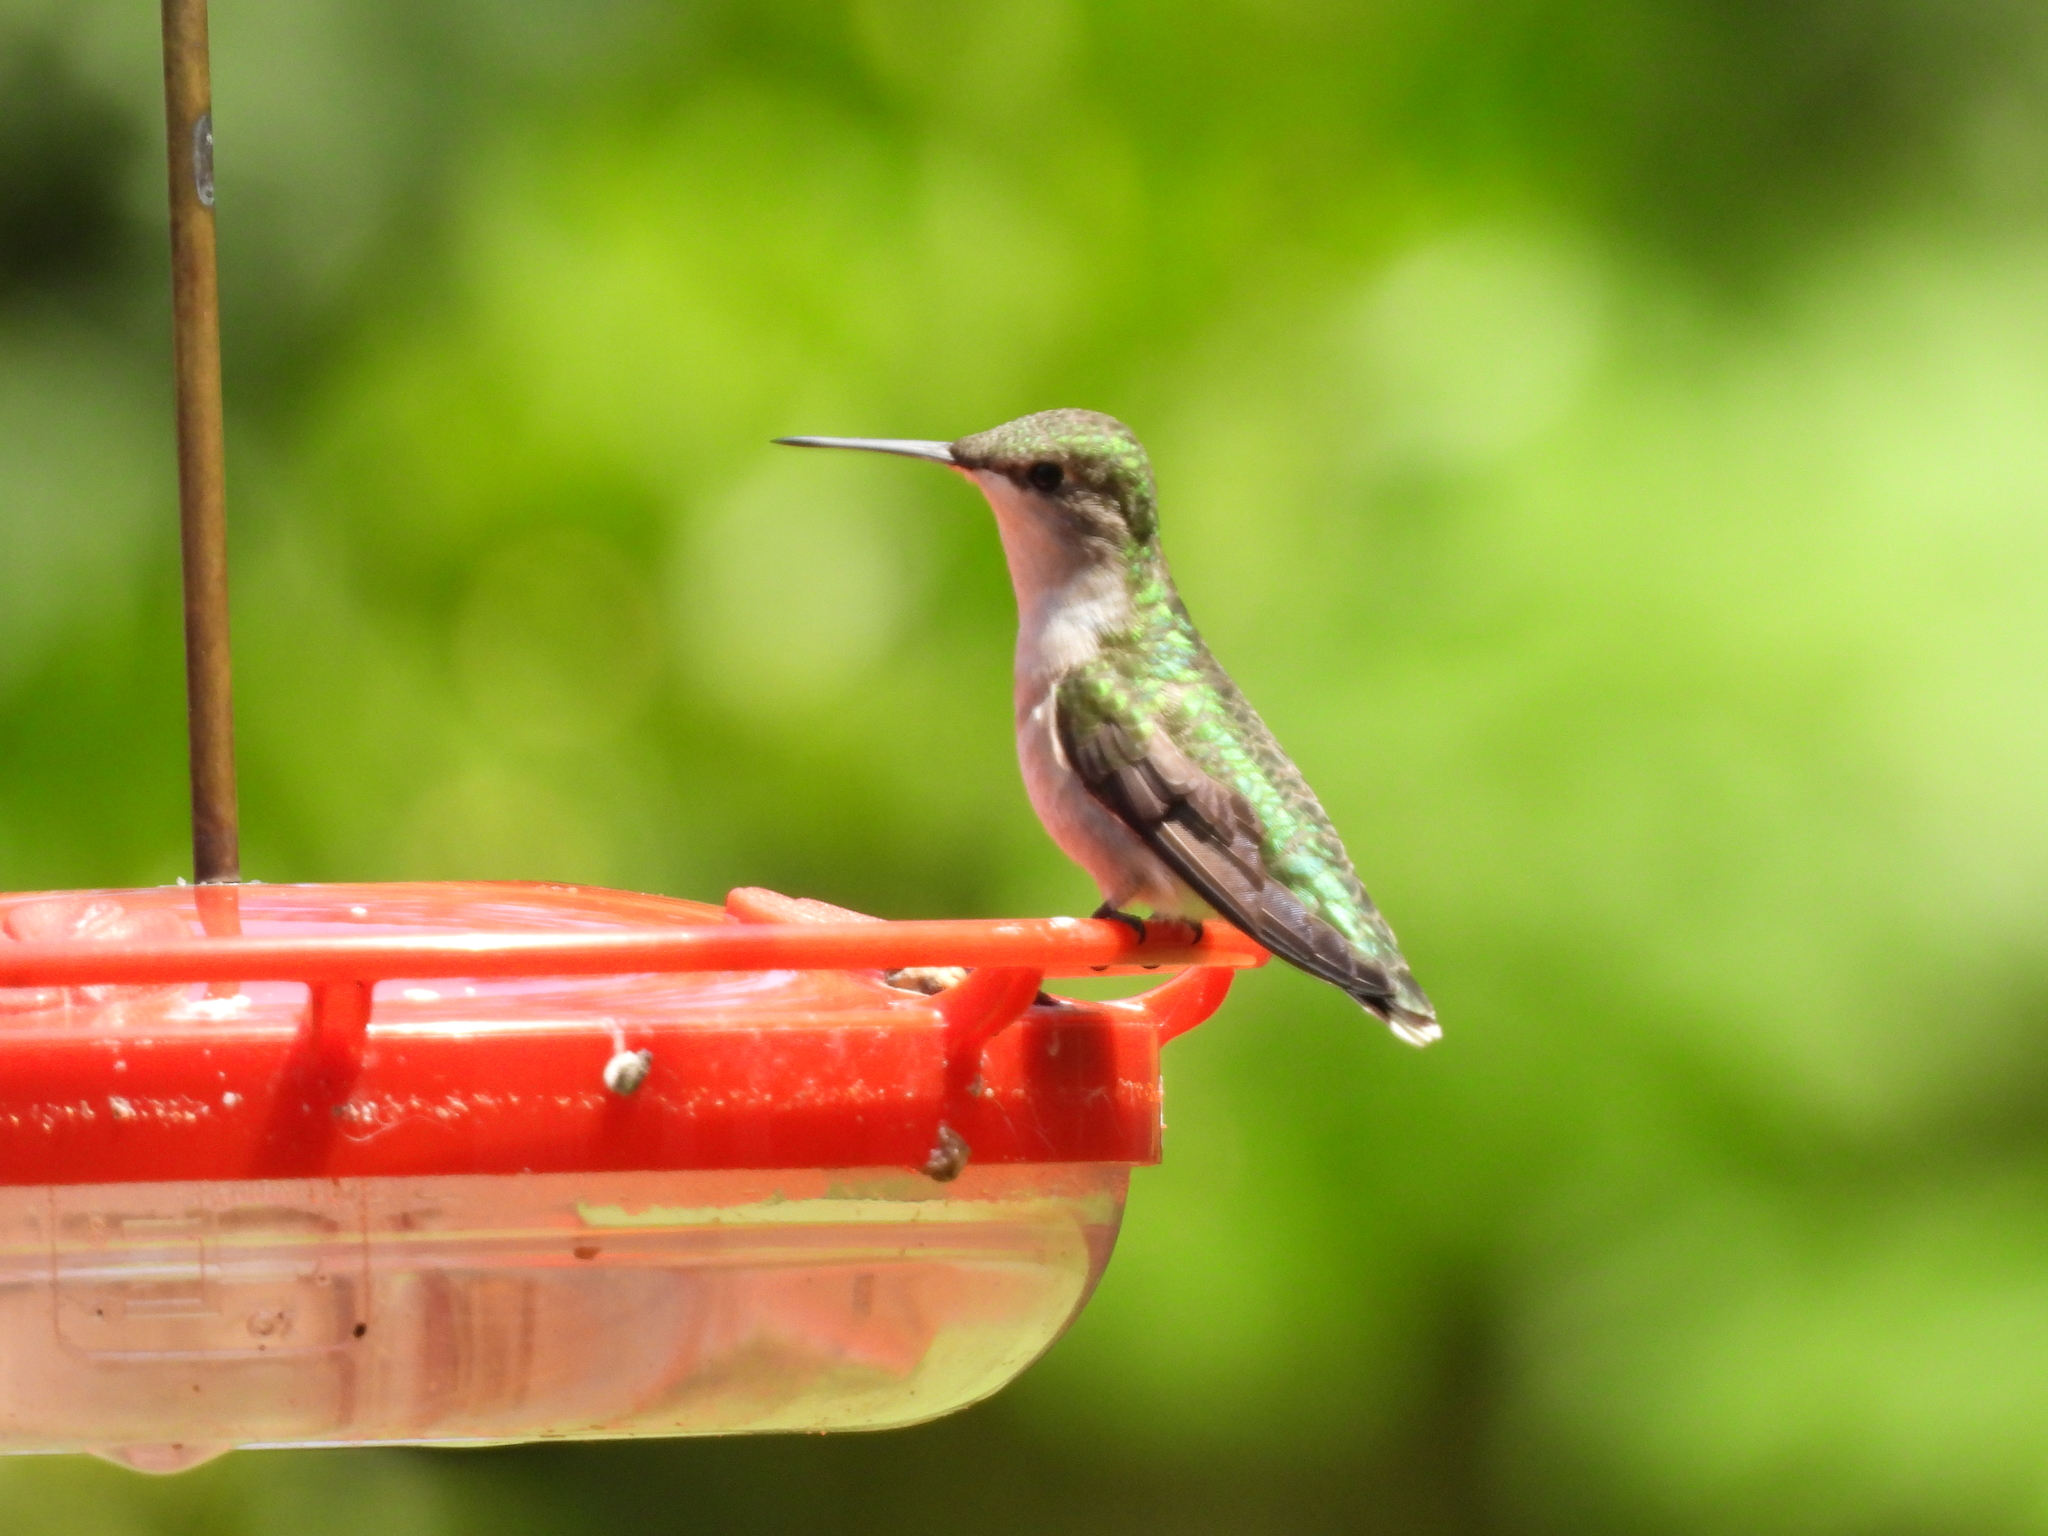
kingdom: Animalia
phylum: Chordata
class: Aves
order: Apodiformes
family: Trochilidae
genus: Archilochus
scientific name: Archilochus colubris
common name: Ruby-throated hummingbird
